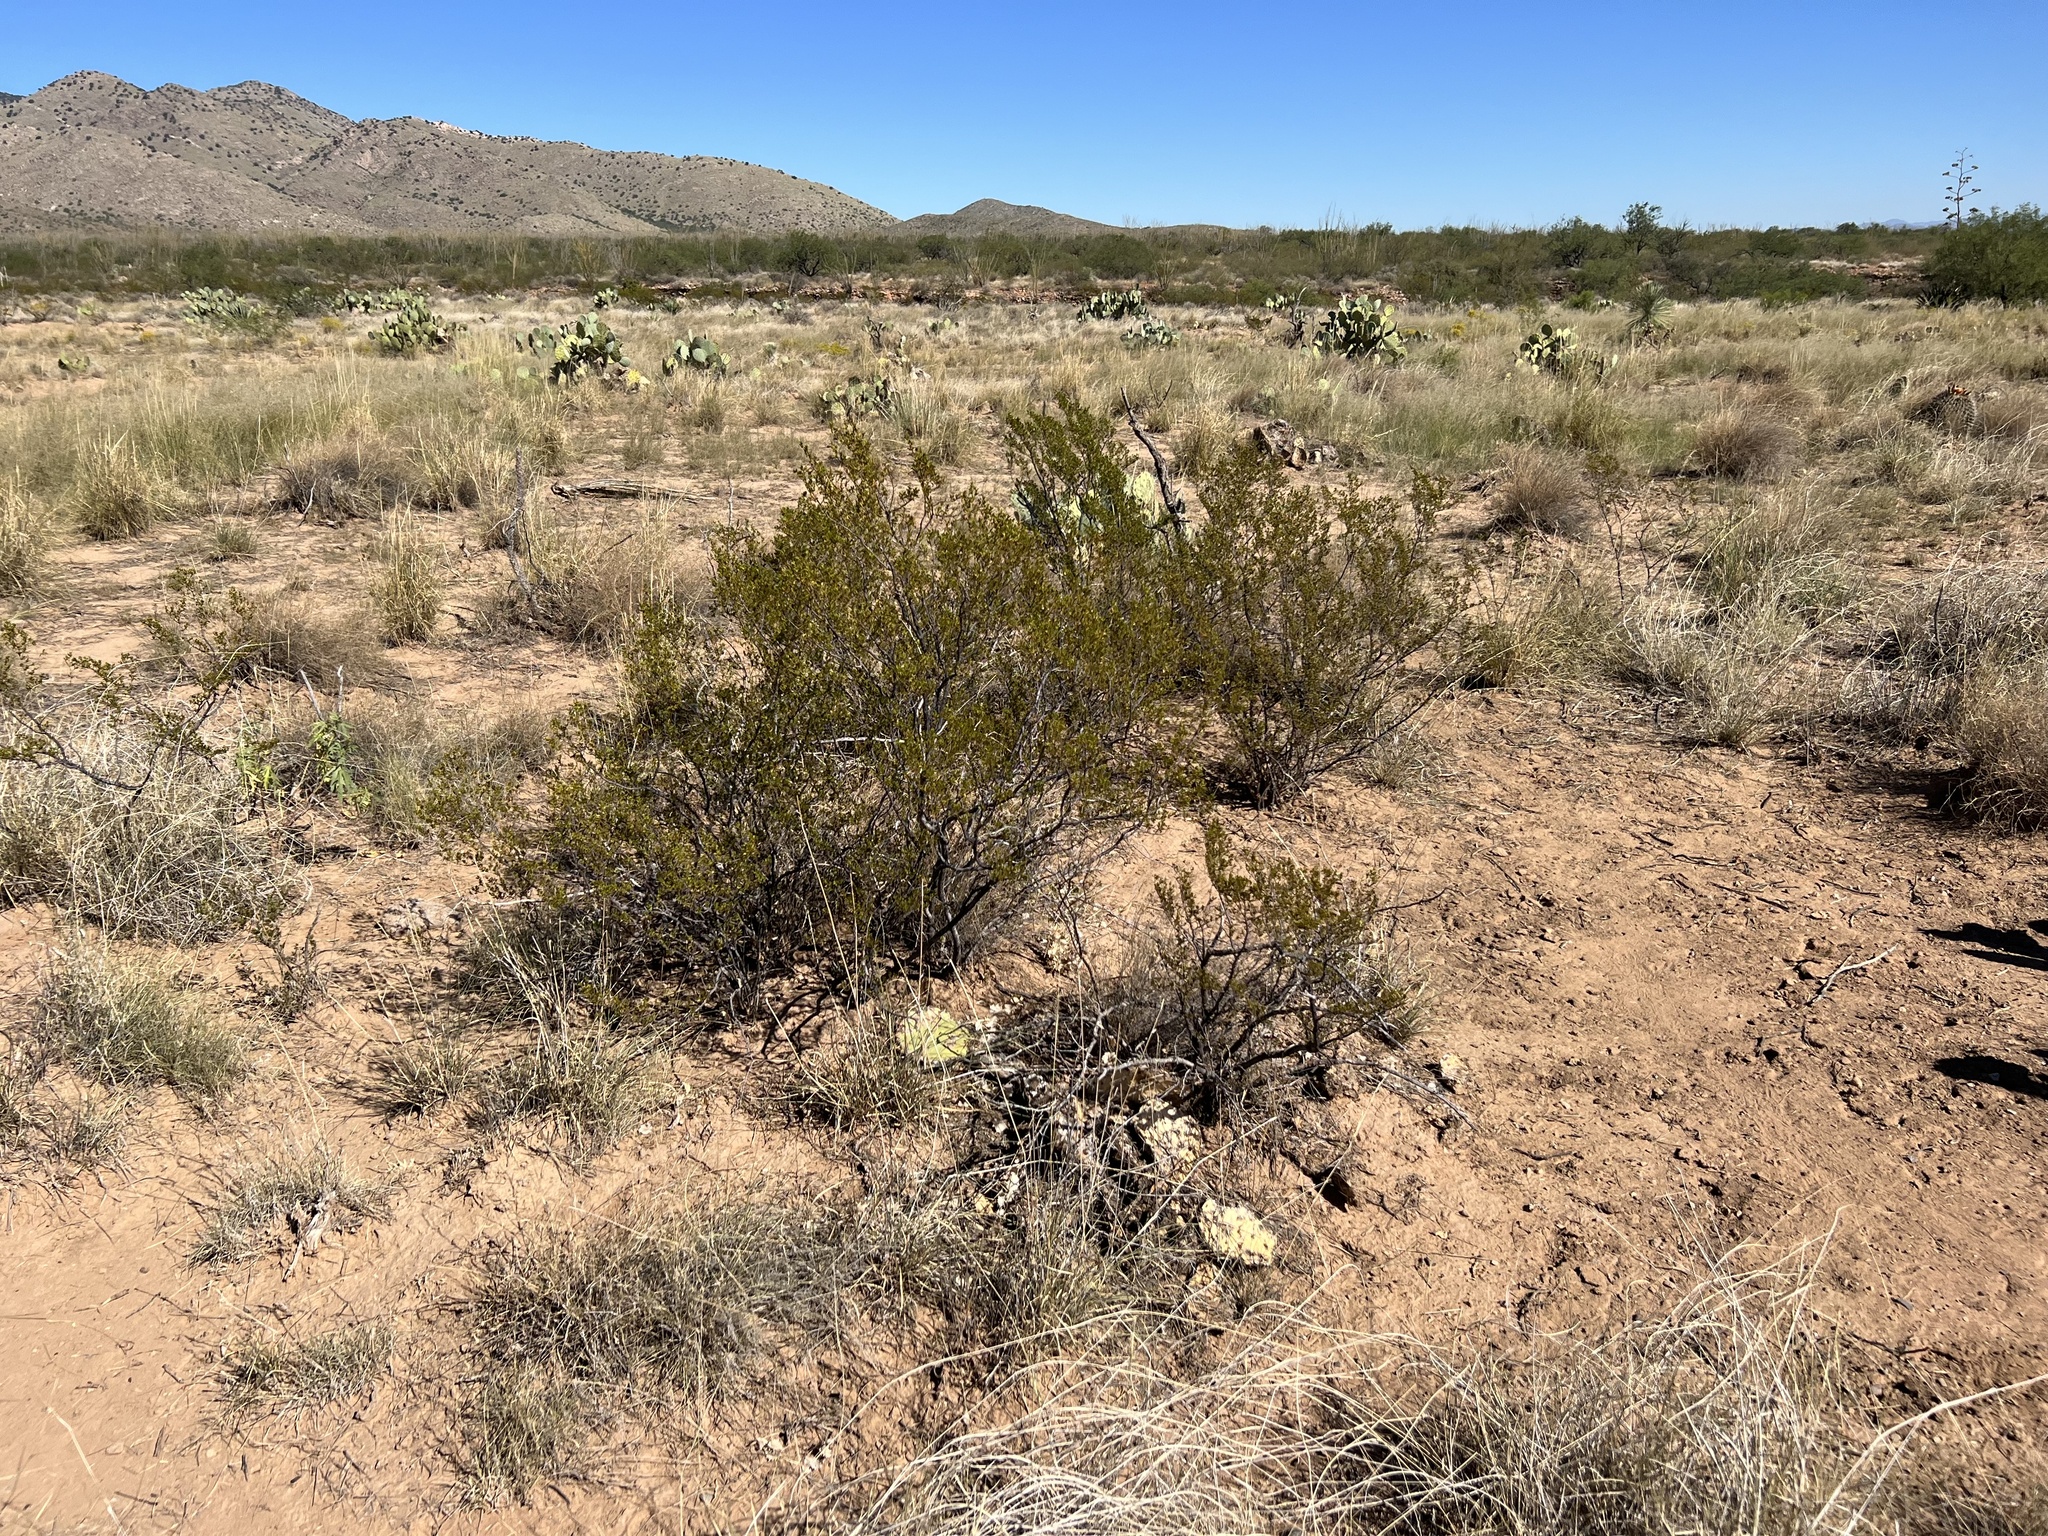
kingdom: Plantae
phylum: Tracheophyta
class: Magnoliopsida
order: Zygophyllales
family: Zygophyllaceae
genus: Larrea
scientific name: Larrea tridentata
